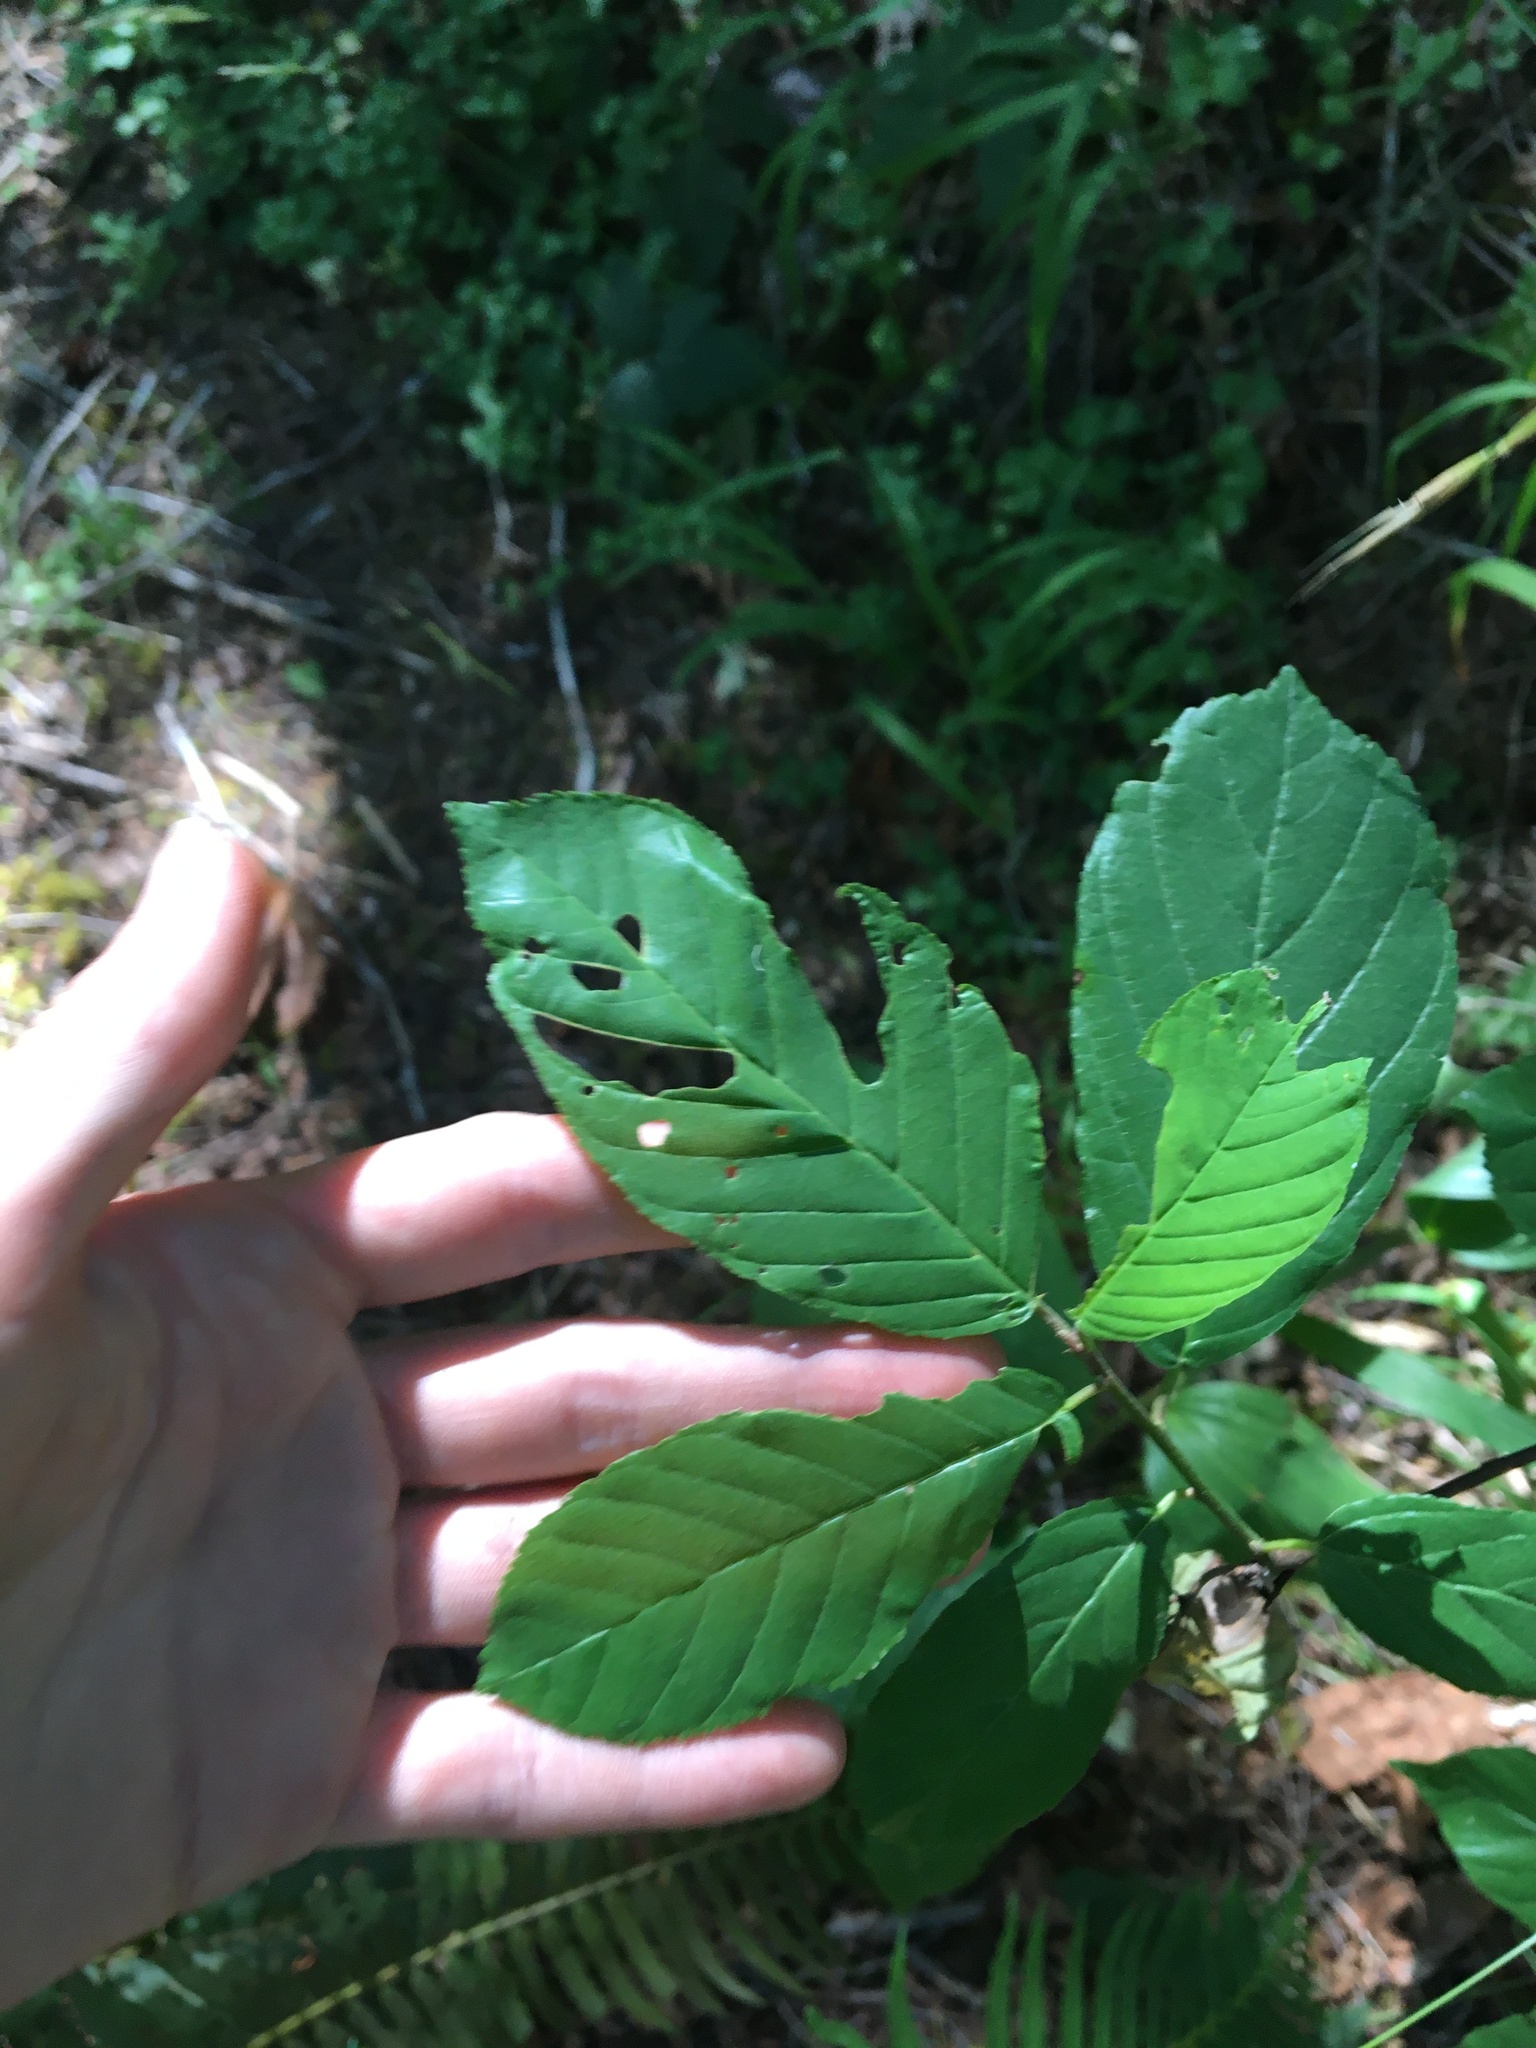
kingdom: Plantae
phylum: Tracheophyta
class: Magnoliopsida
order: Rosales
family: Rhamnaceae
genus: Frangula
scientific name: Frangula purshiana
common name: Cascara buckthorn
